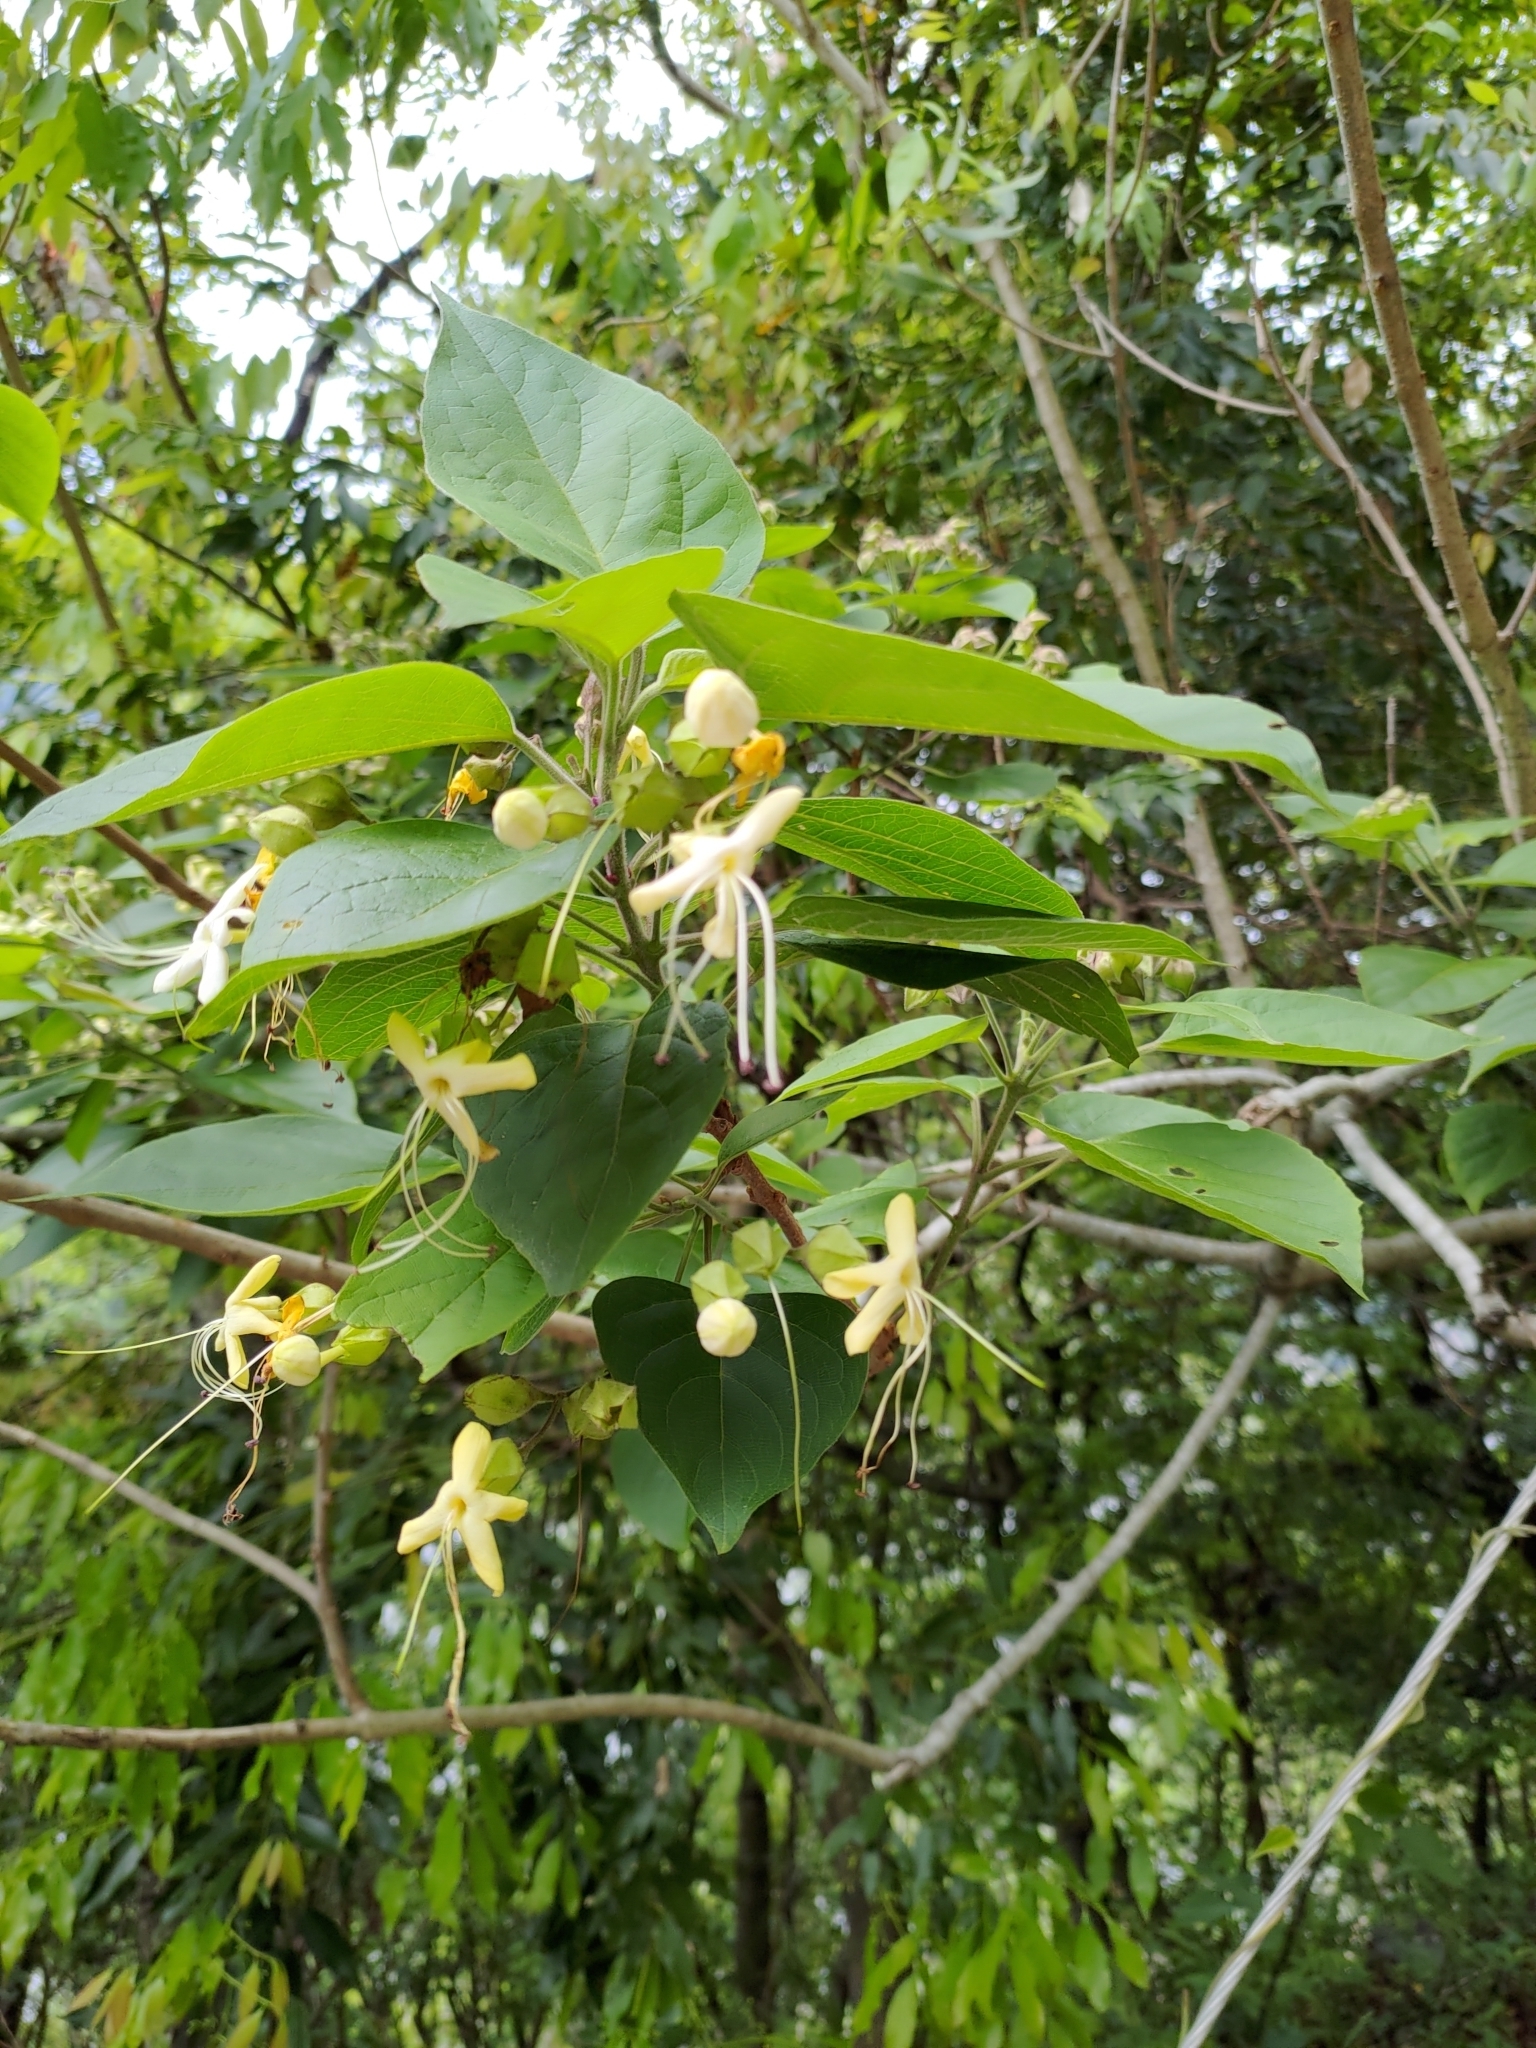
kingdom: Plantae
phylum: Tracheophyta
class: Magnoliopsida
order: Lamiales
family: Lamiaceae
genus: Clerodendrum
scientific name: Clerodendrum trichotomum
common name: Harlequin glorybower
